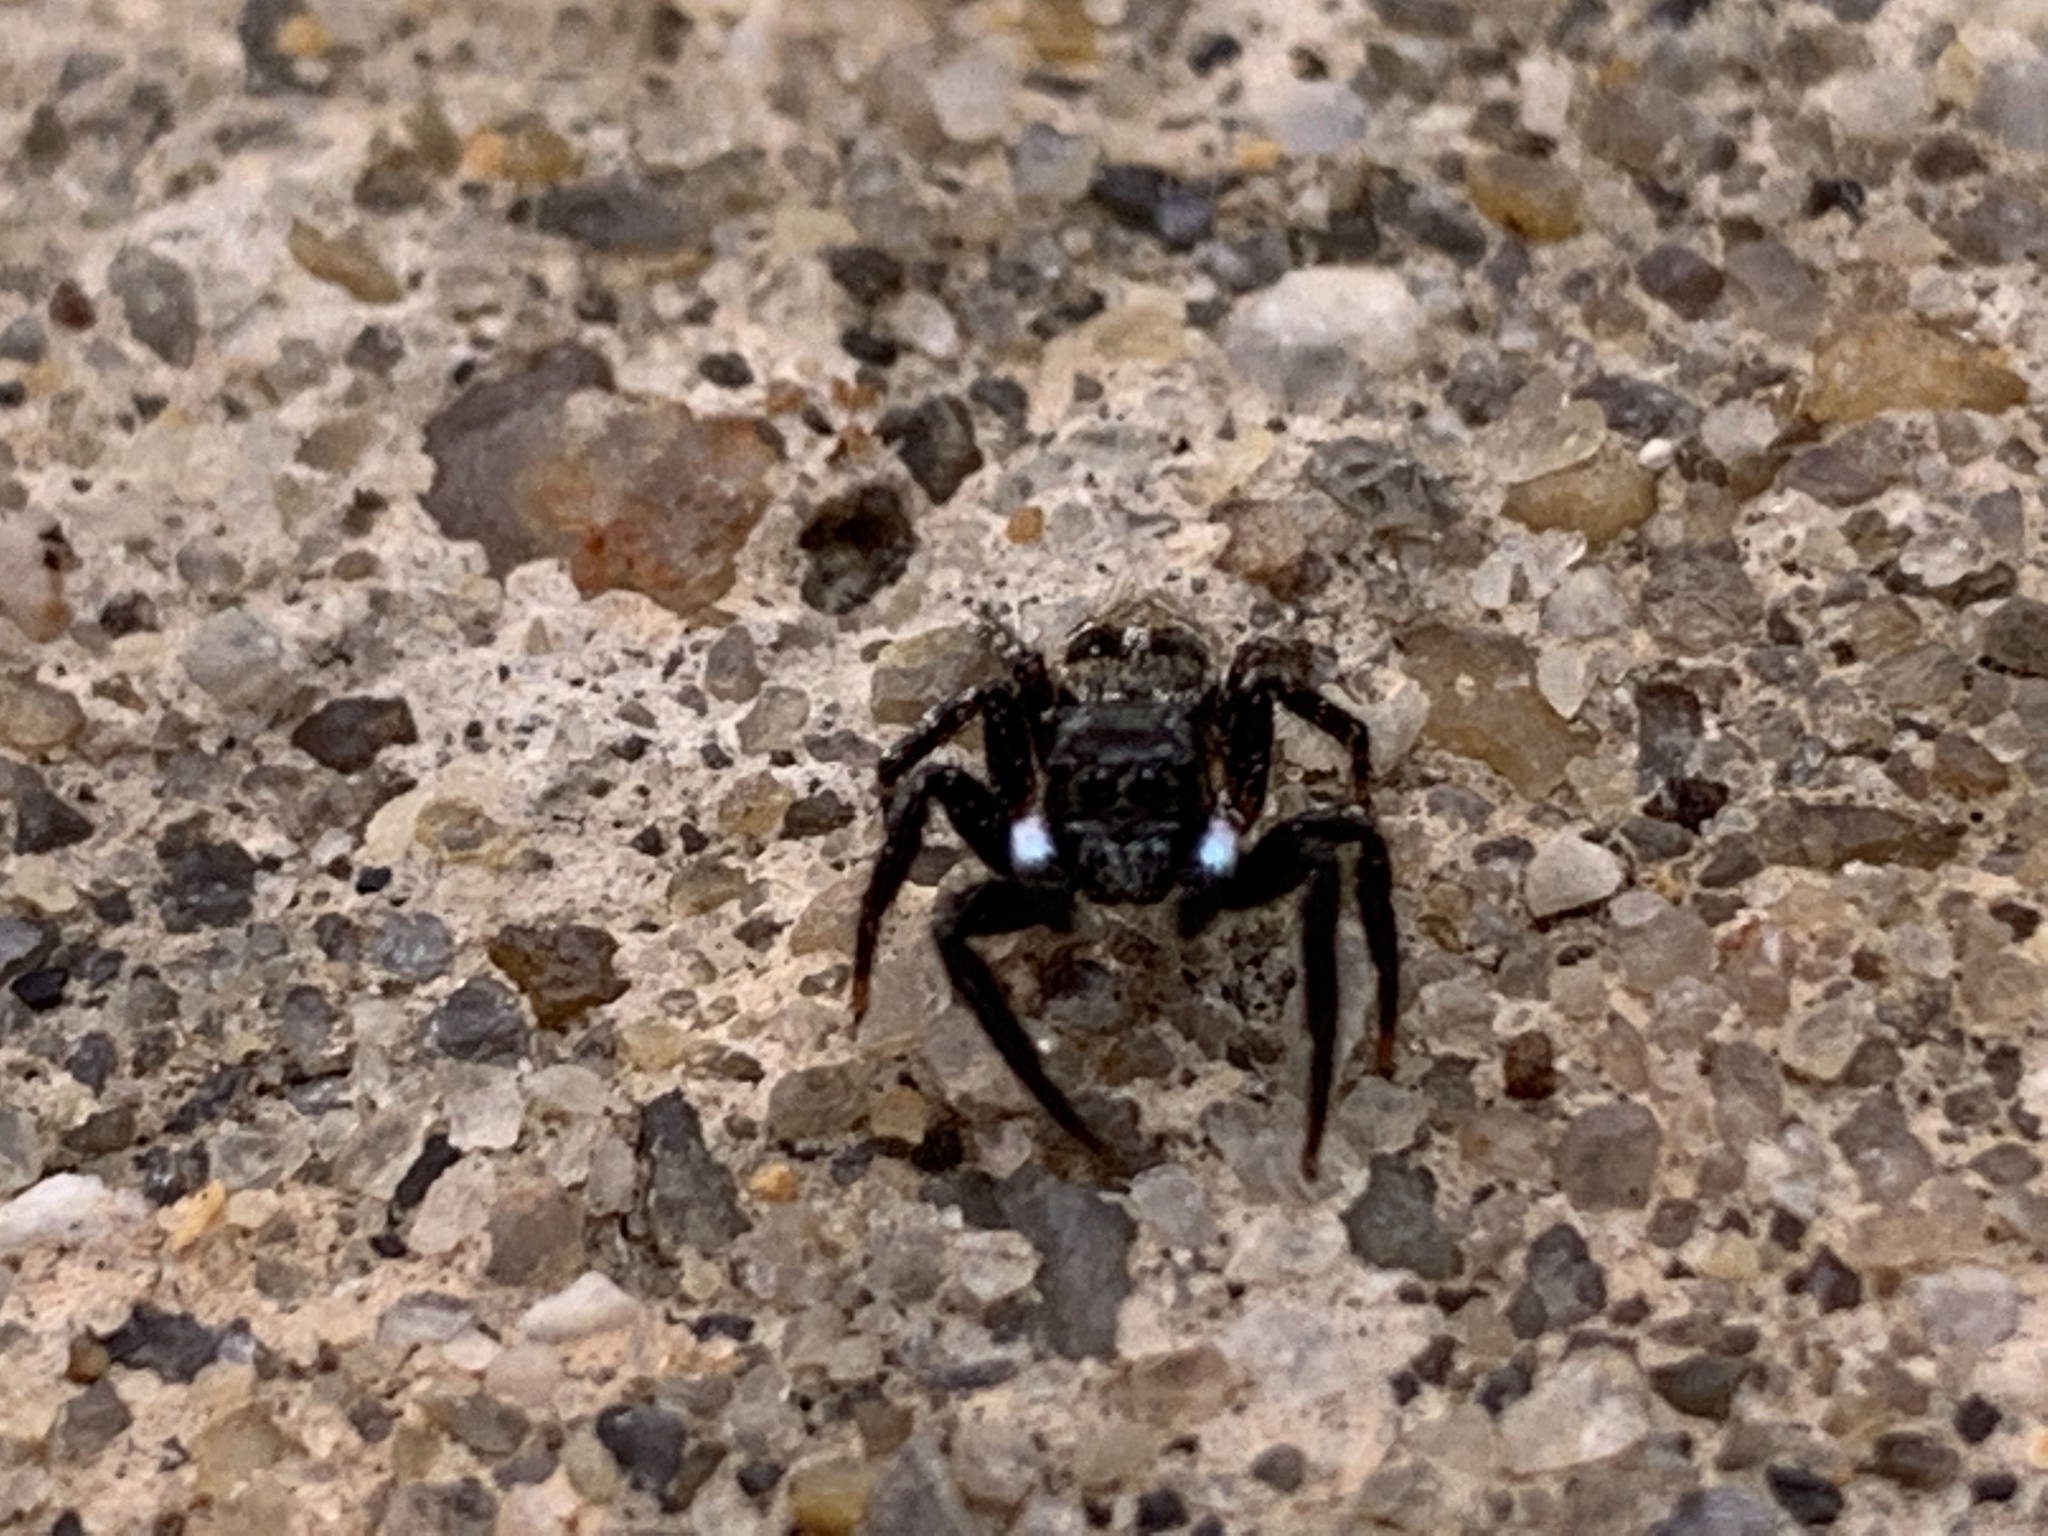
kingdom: Animalia
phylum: Arthropoda
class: Arachnida
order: Araneae
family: Salticidae
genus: Anasaitis
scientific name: Anasaitis canosa
